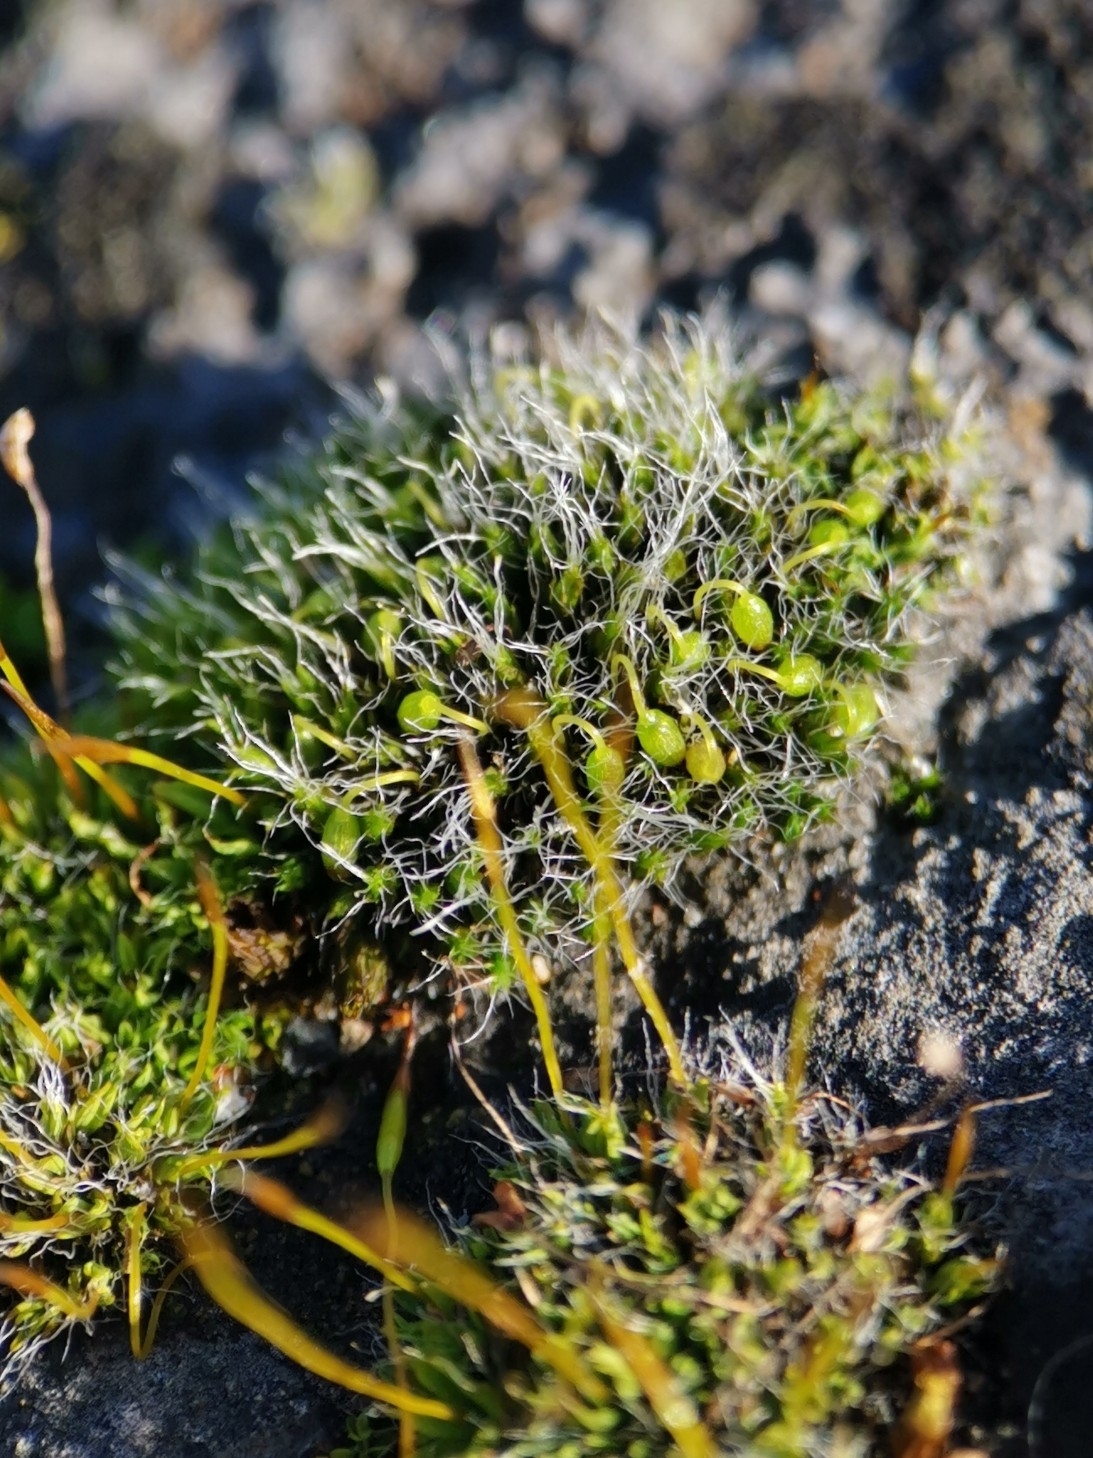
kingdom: Plantae
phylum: Bryophyta
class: Bryopsida
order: Grimmiales
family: Grimmiaceae
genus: Grimmia
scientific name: Grimmia pulvinata
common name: Grey-cushioned grimmia
